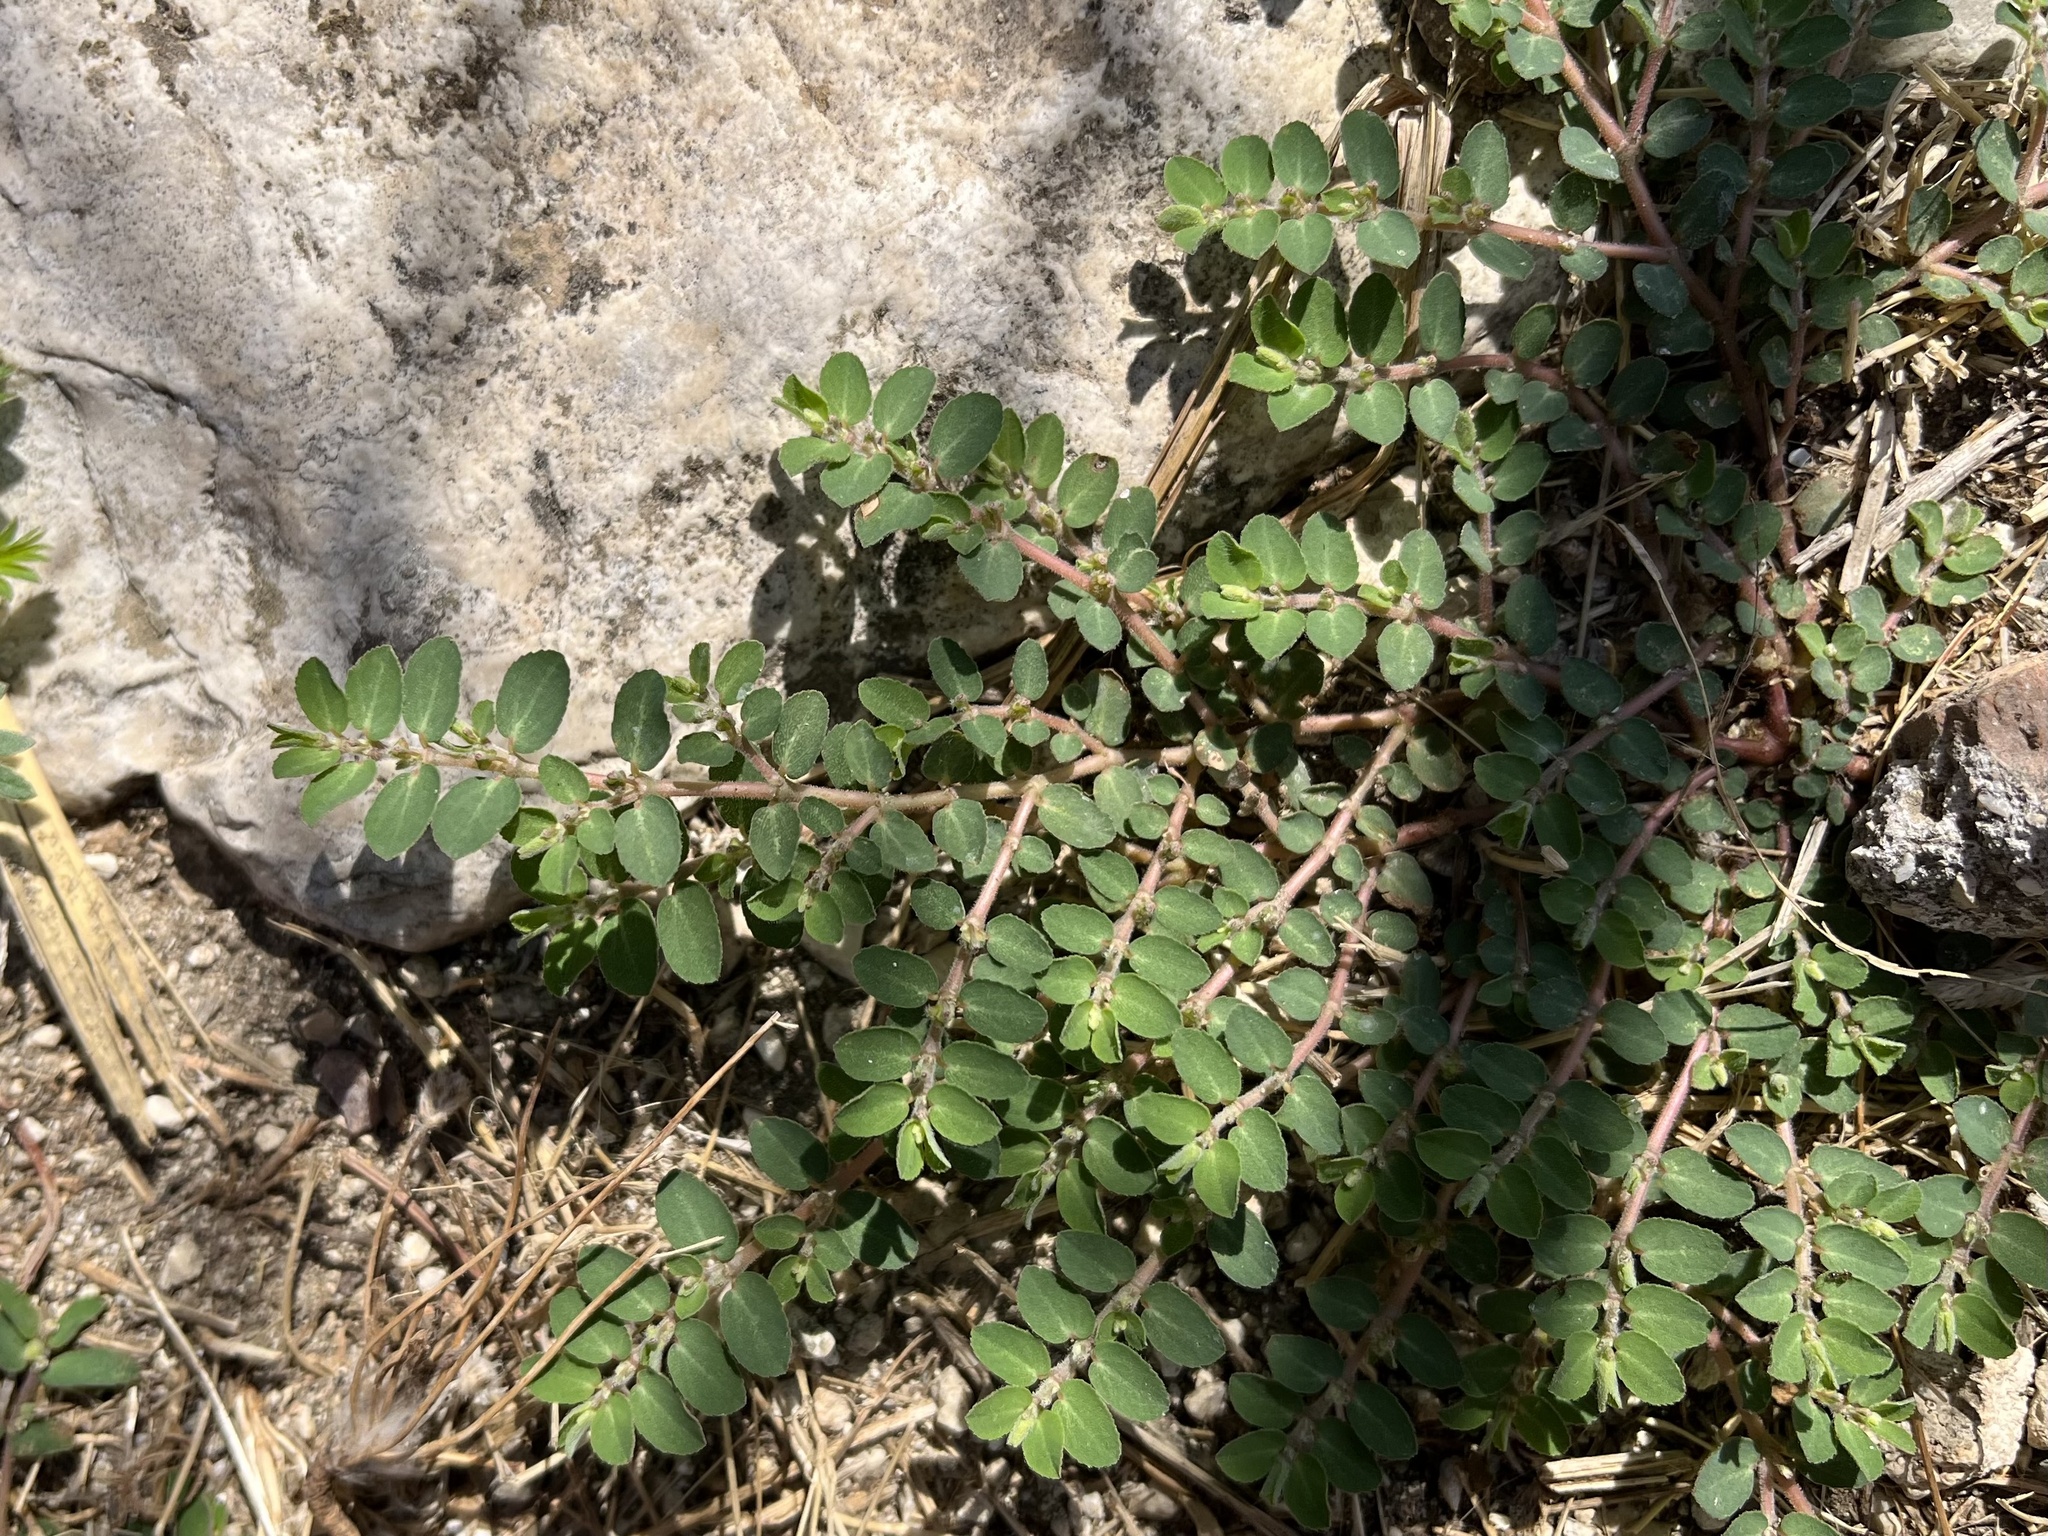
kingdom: Plantae
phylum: Tracheophyta
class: Magnoliopsida
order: Malpighiales
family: Euphorbiaceae
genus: Euphorbia
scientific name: Euphorbia prostrata
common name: Prostrate sandmat
